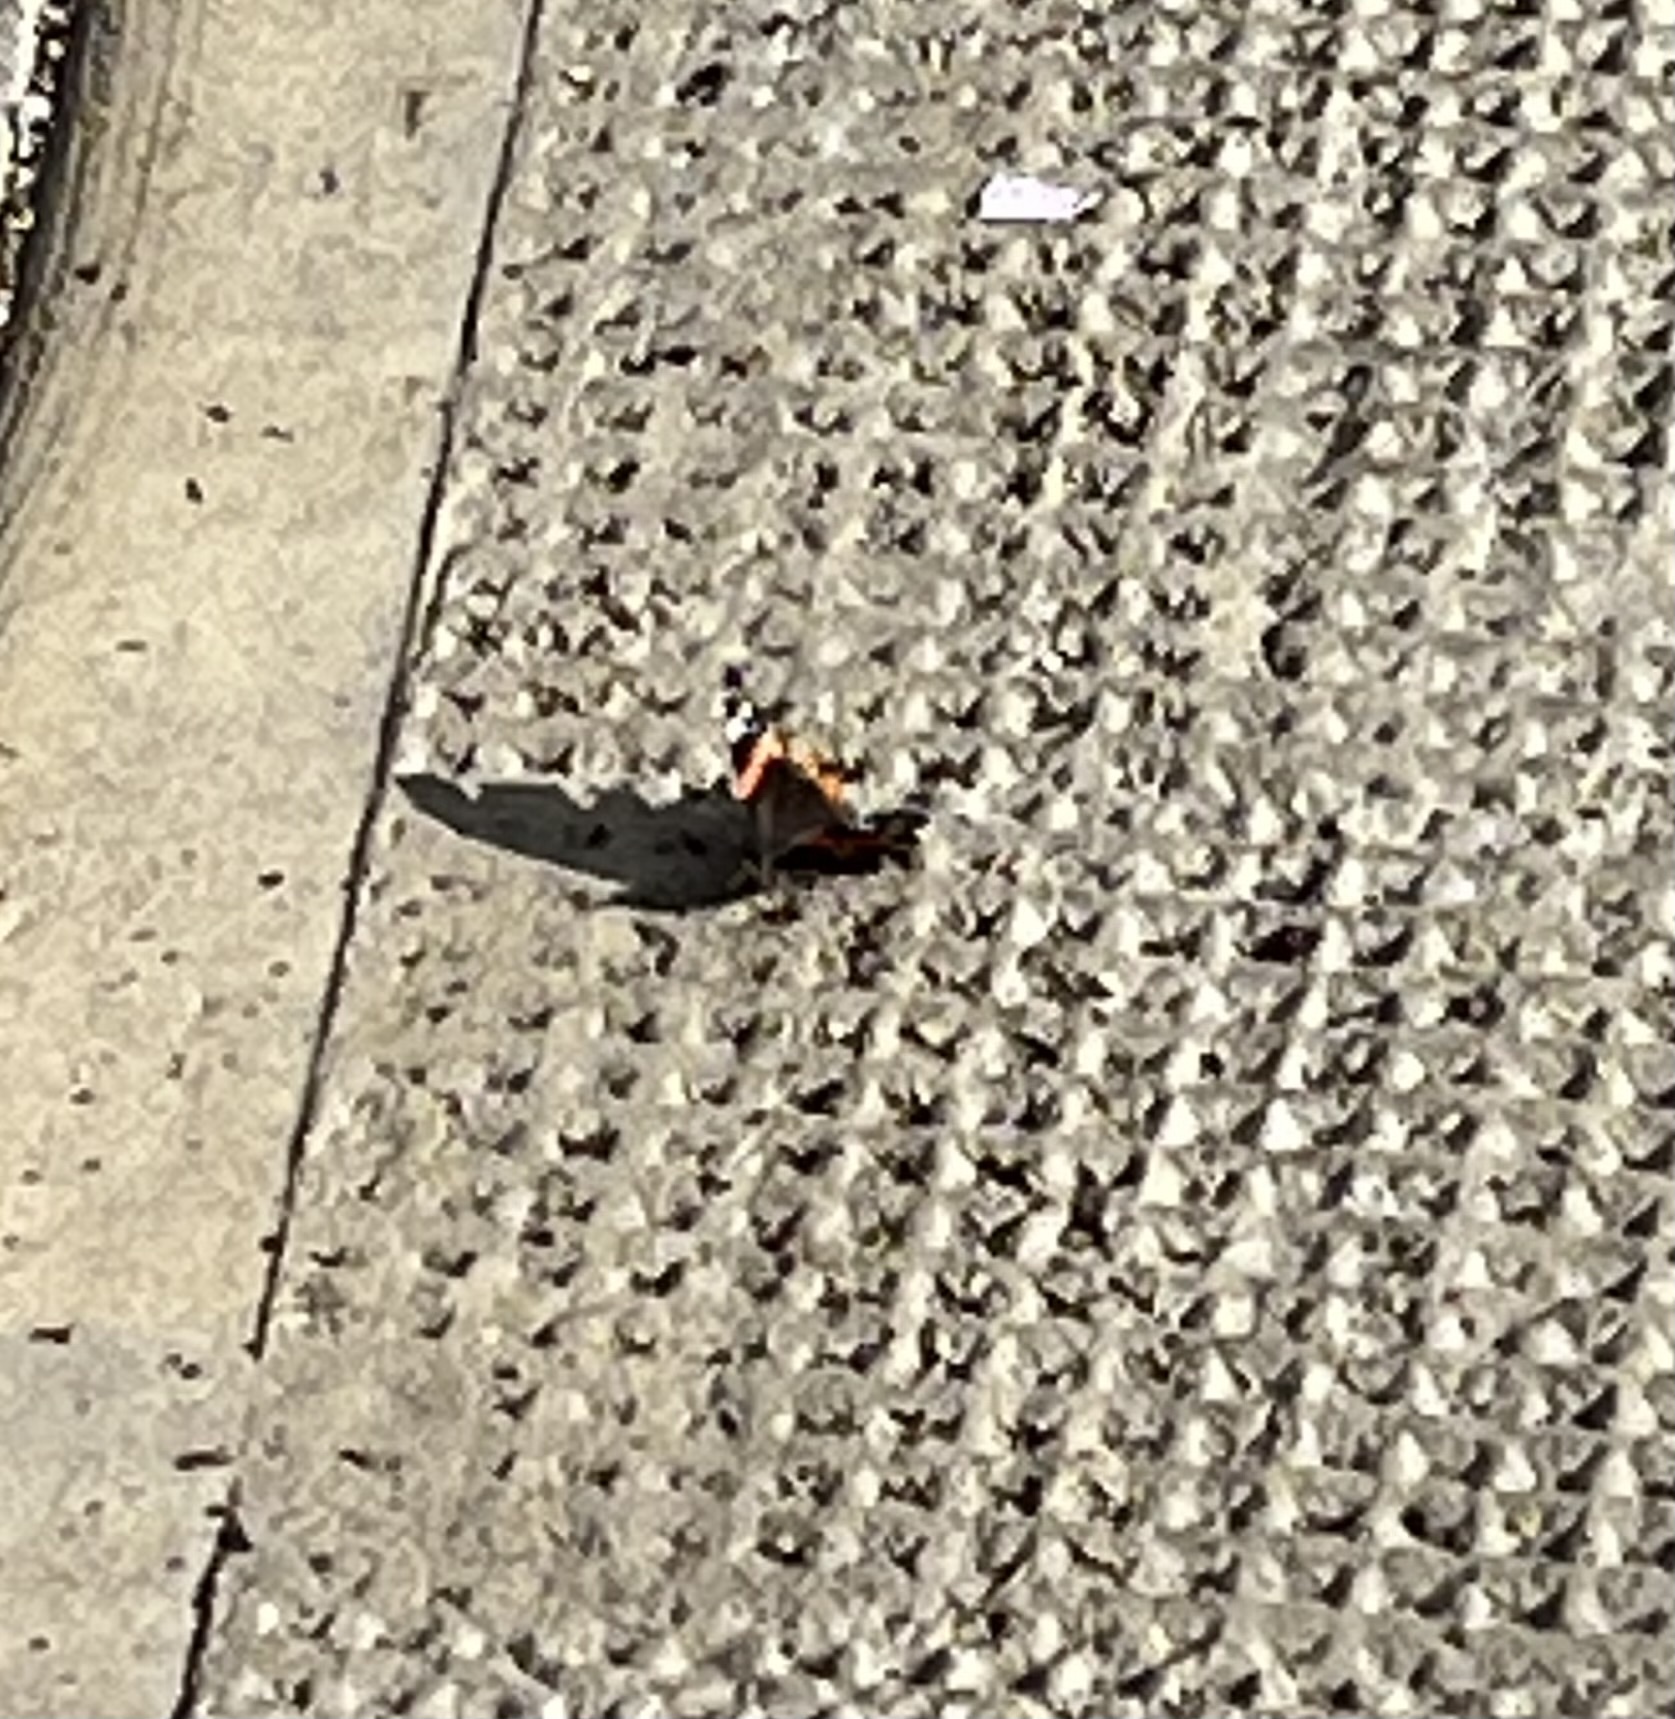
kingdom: Animalia
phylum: Arthropoda
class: Insecta
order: Lepidoptera
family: Nymphalidae
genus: Vanessa
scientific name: Vanessa atalanta
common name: Red admiral
